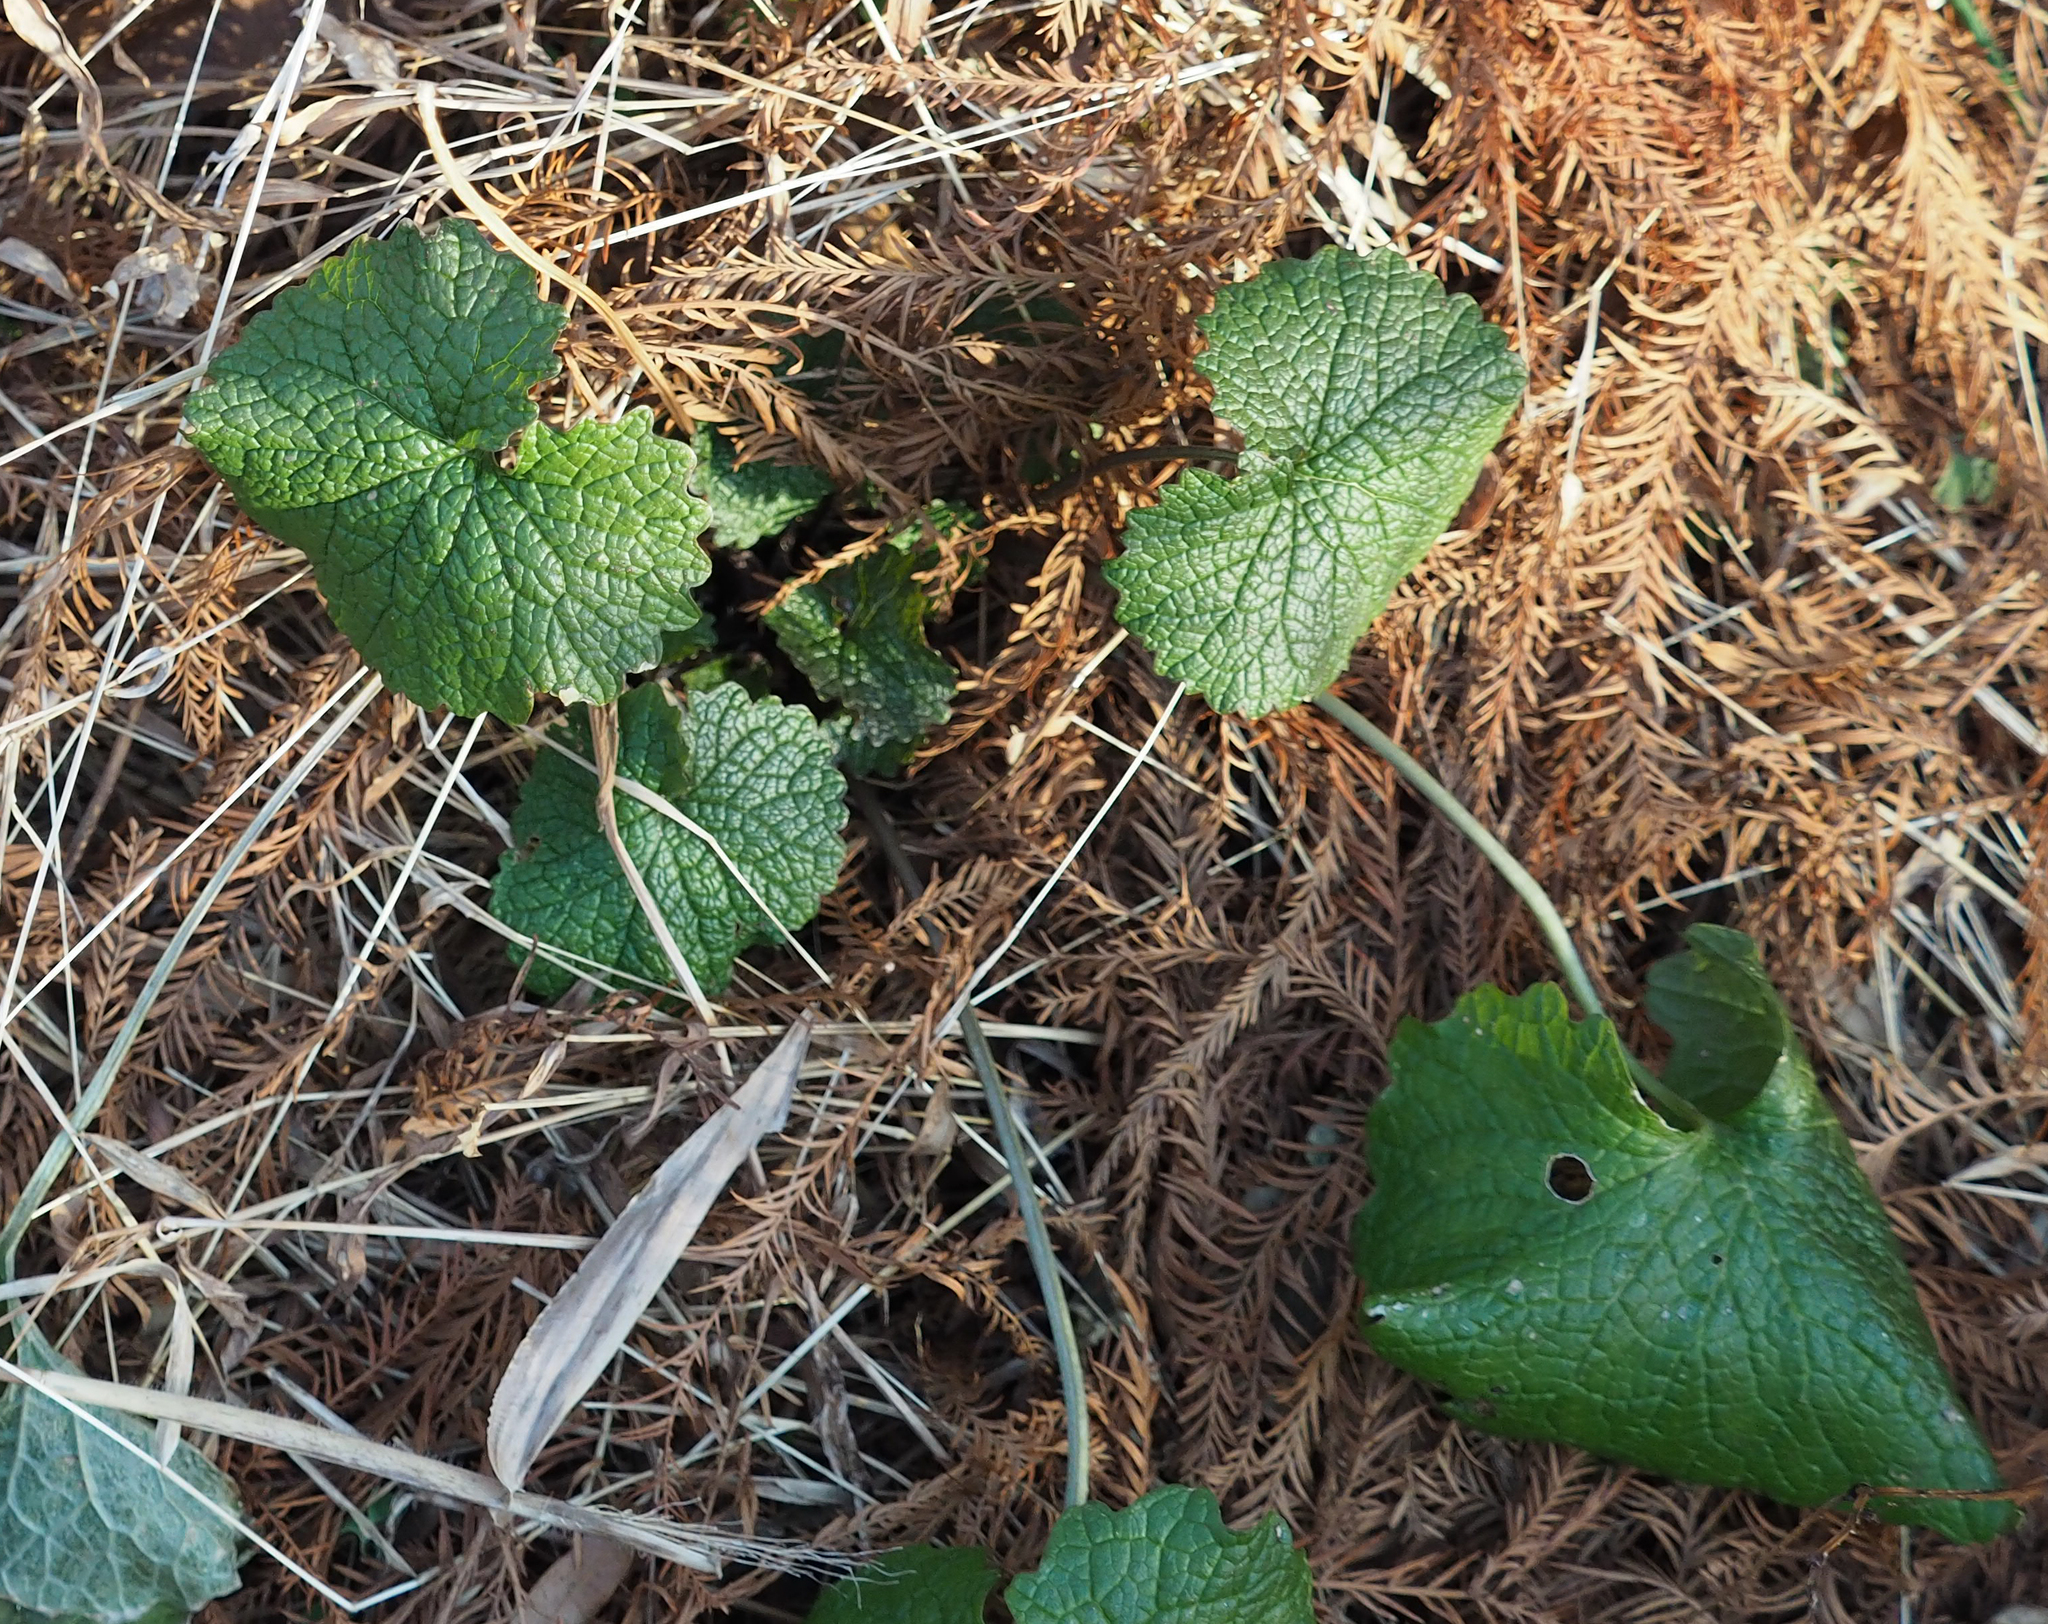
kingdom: Plantae
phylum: Tracheophyta
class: Magnoliopsida
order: Brassicales
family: Brassicaceae
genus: Alliaria
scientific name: Alliaria petiolata
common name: Garlic mustard
